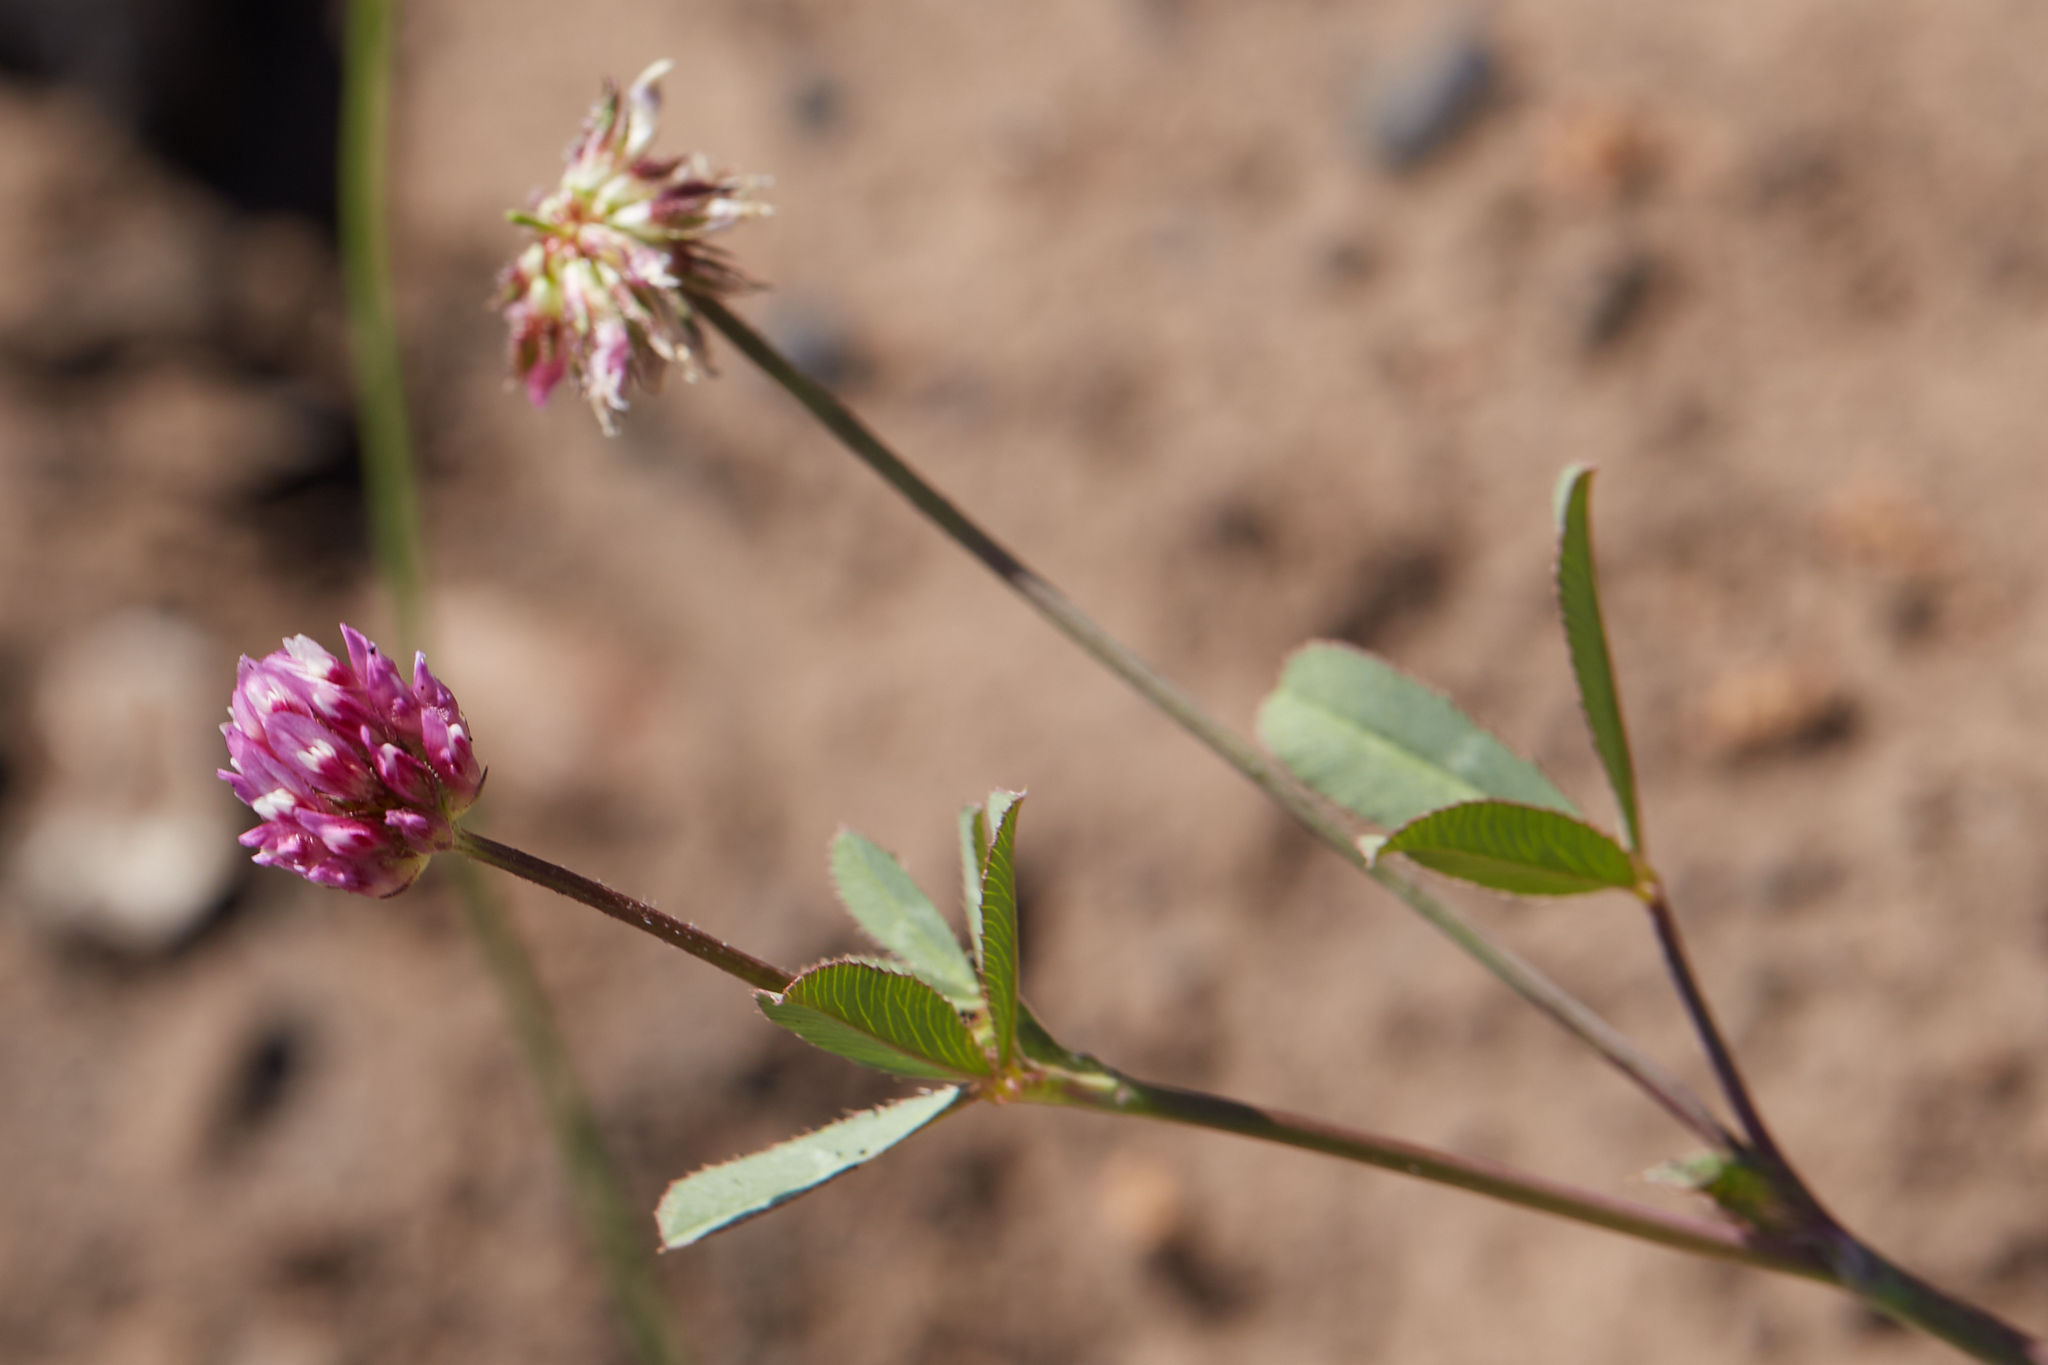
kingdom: Plantae
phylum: Tracheophyta
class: Magnoliopsida
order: Fabales
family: Fabaceae
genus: Trifolium
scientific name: Trifolium ciliolatum
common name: Foothill clover
